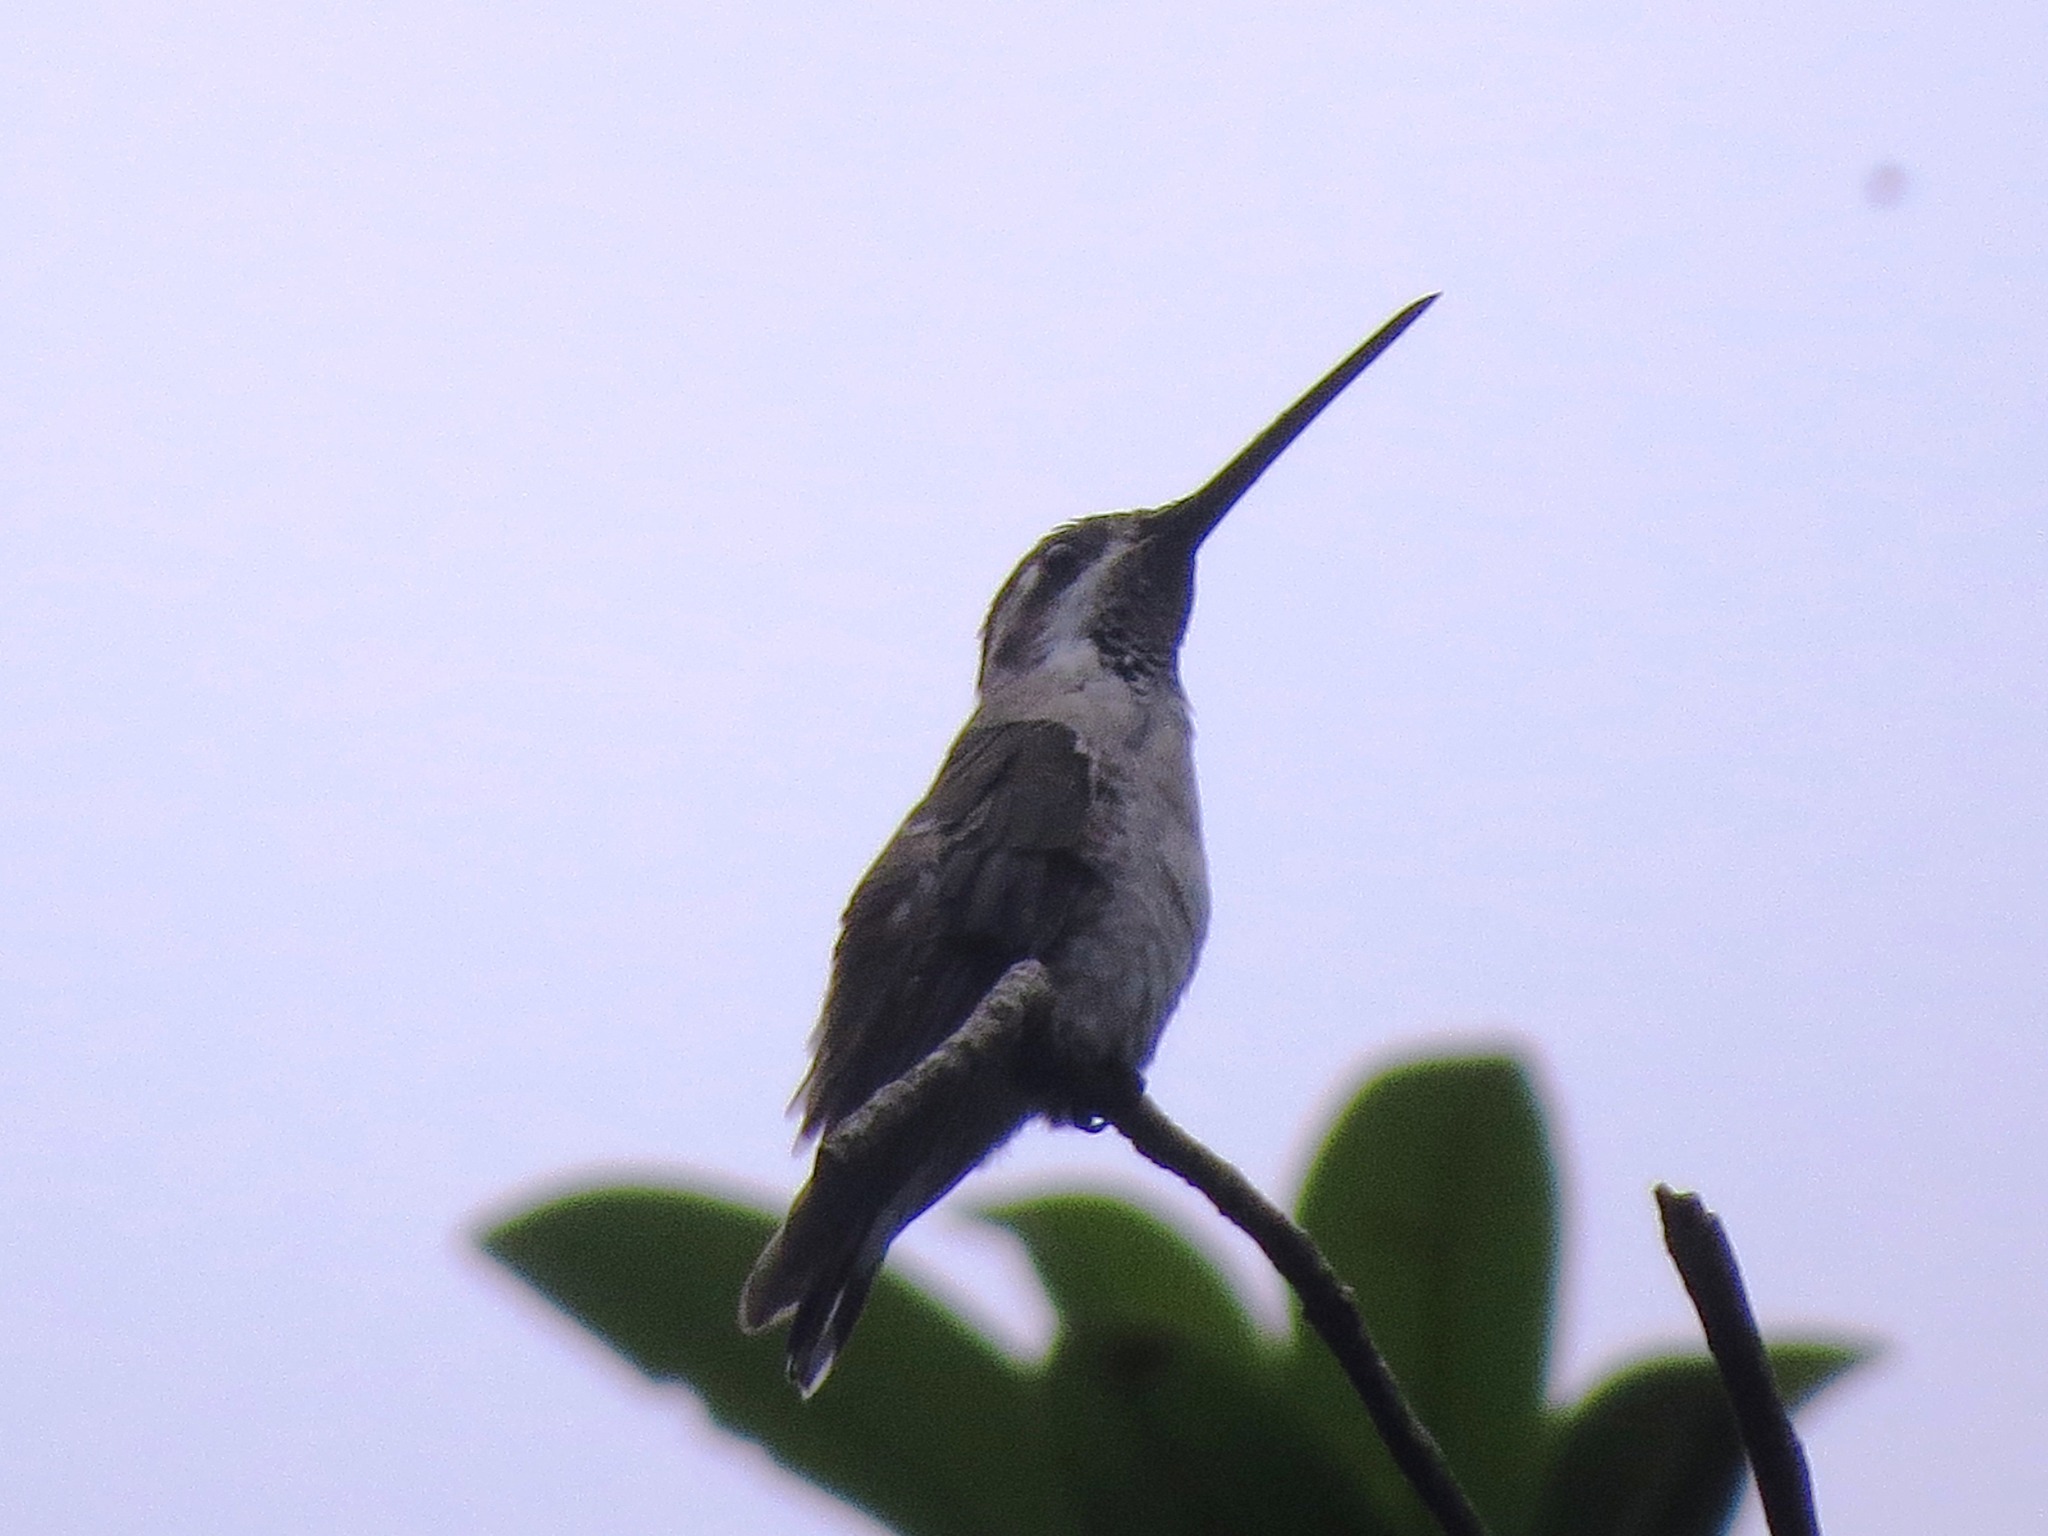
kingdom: Animalia
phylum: Chordata
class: Aves
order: Apodiformes
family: Trochilidae
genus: Heliomaster
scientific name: Heliomaster constantii
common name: Plain-capped starthroat
